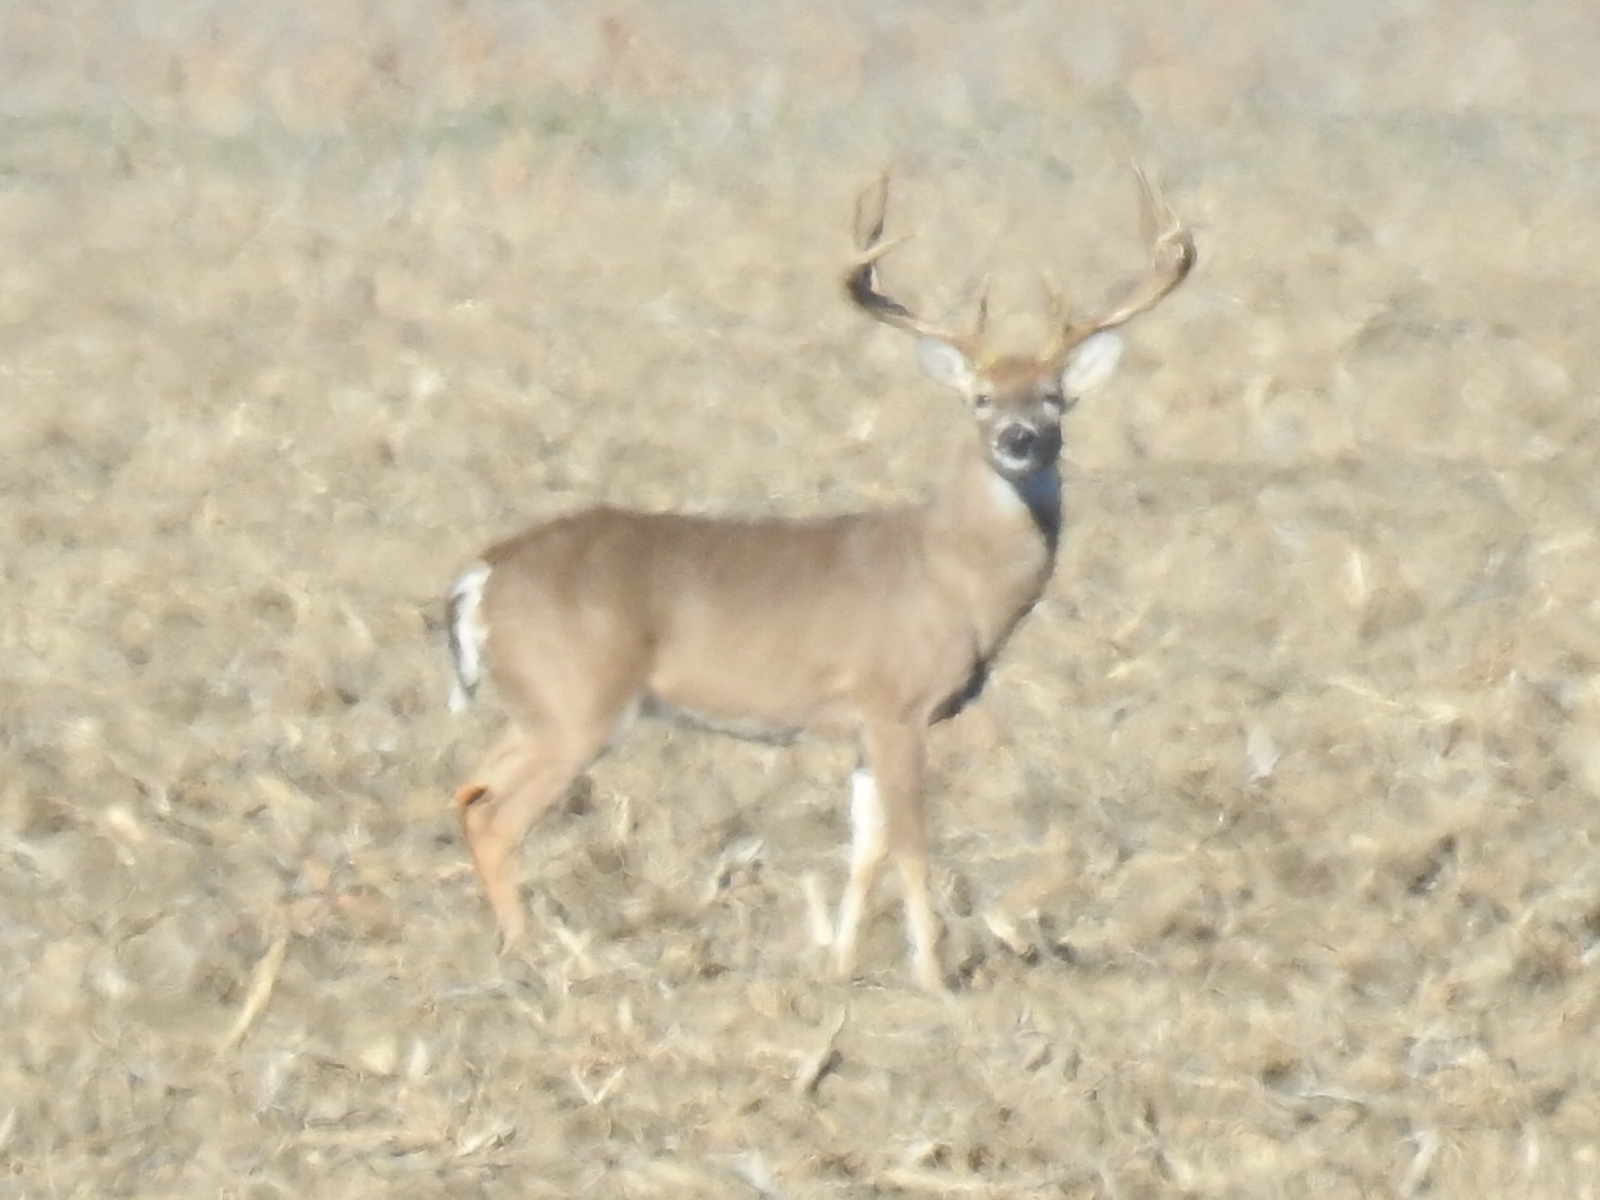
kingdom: Animalia
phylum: Chordata
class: Mammalia
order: Artiodactyla
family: Cervidae
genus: Odocoileus
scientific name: Odocoileus virginianus
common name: White-tailed deer
